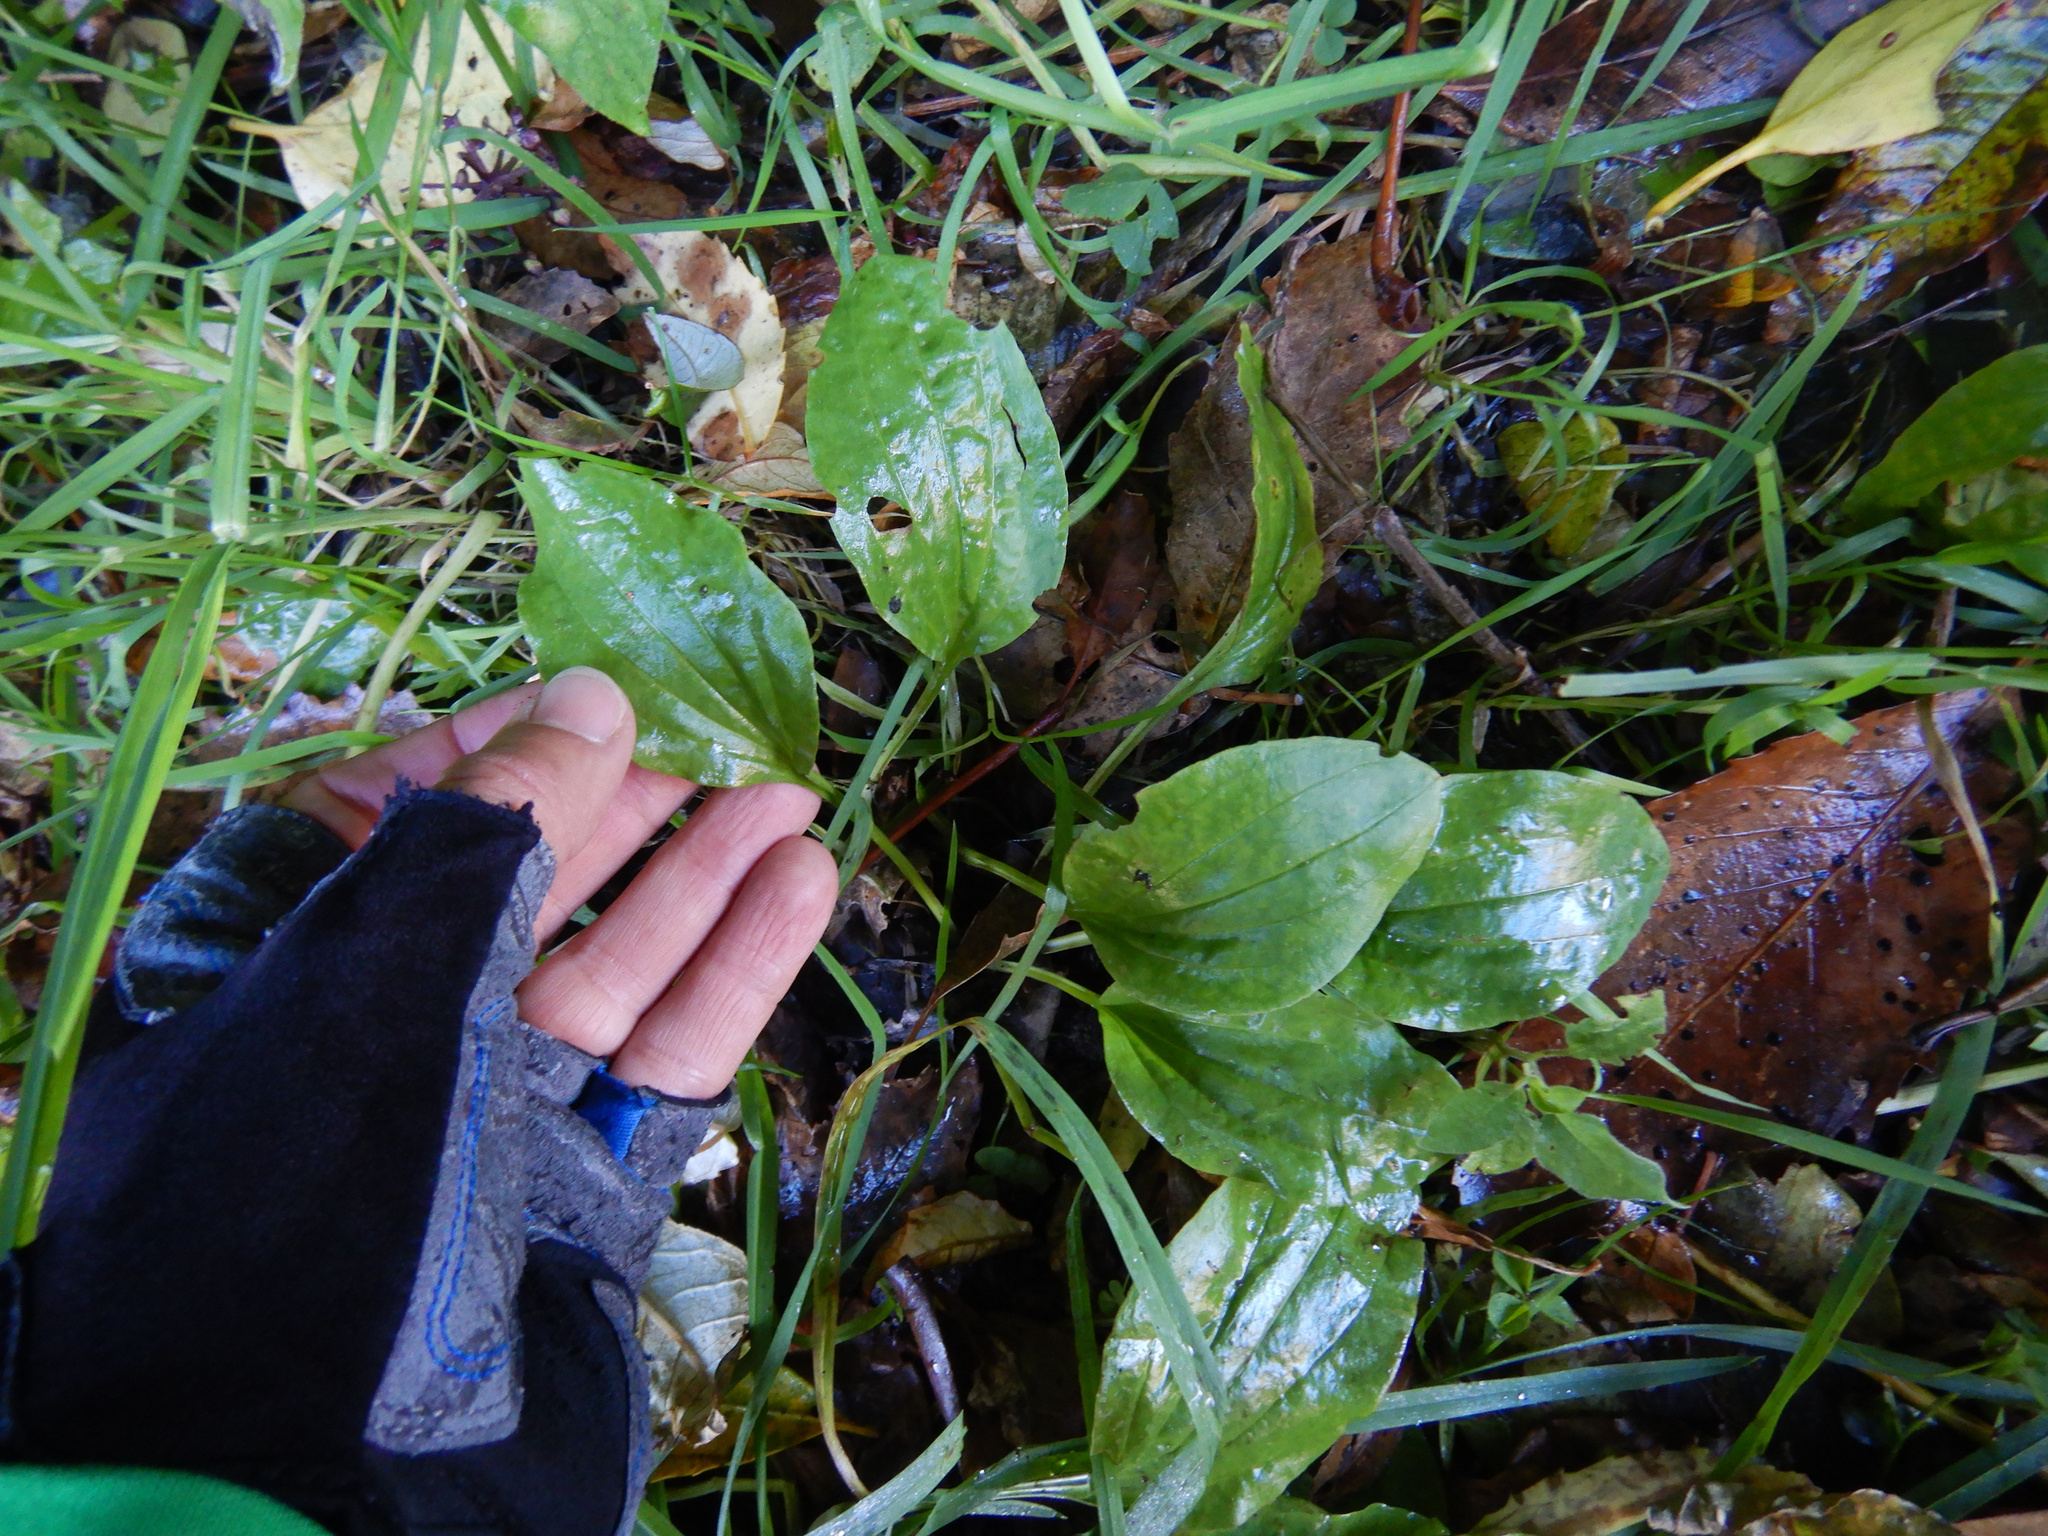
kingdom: Plantae
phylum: Tracheophyta
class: Magnoliopsida
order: Lamiales
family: Plantaginaceae
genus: Plantago
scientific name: Plantago major
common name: Common plantain
